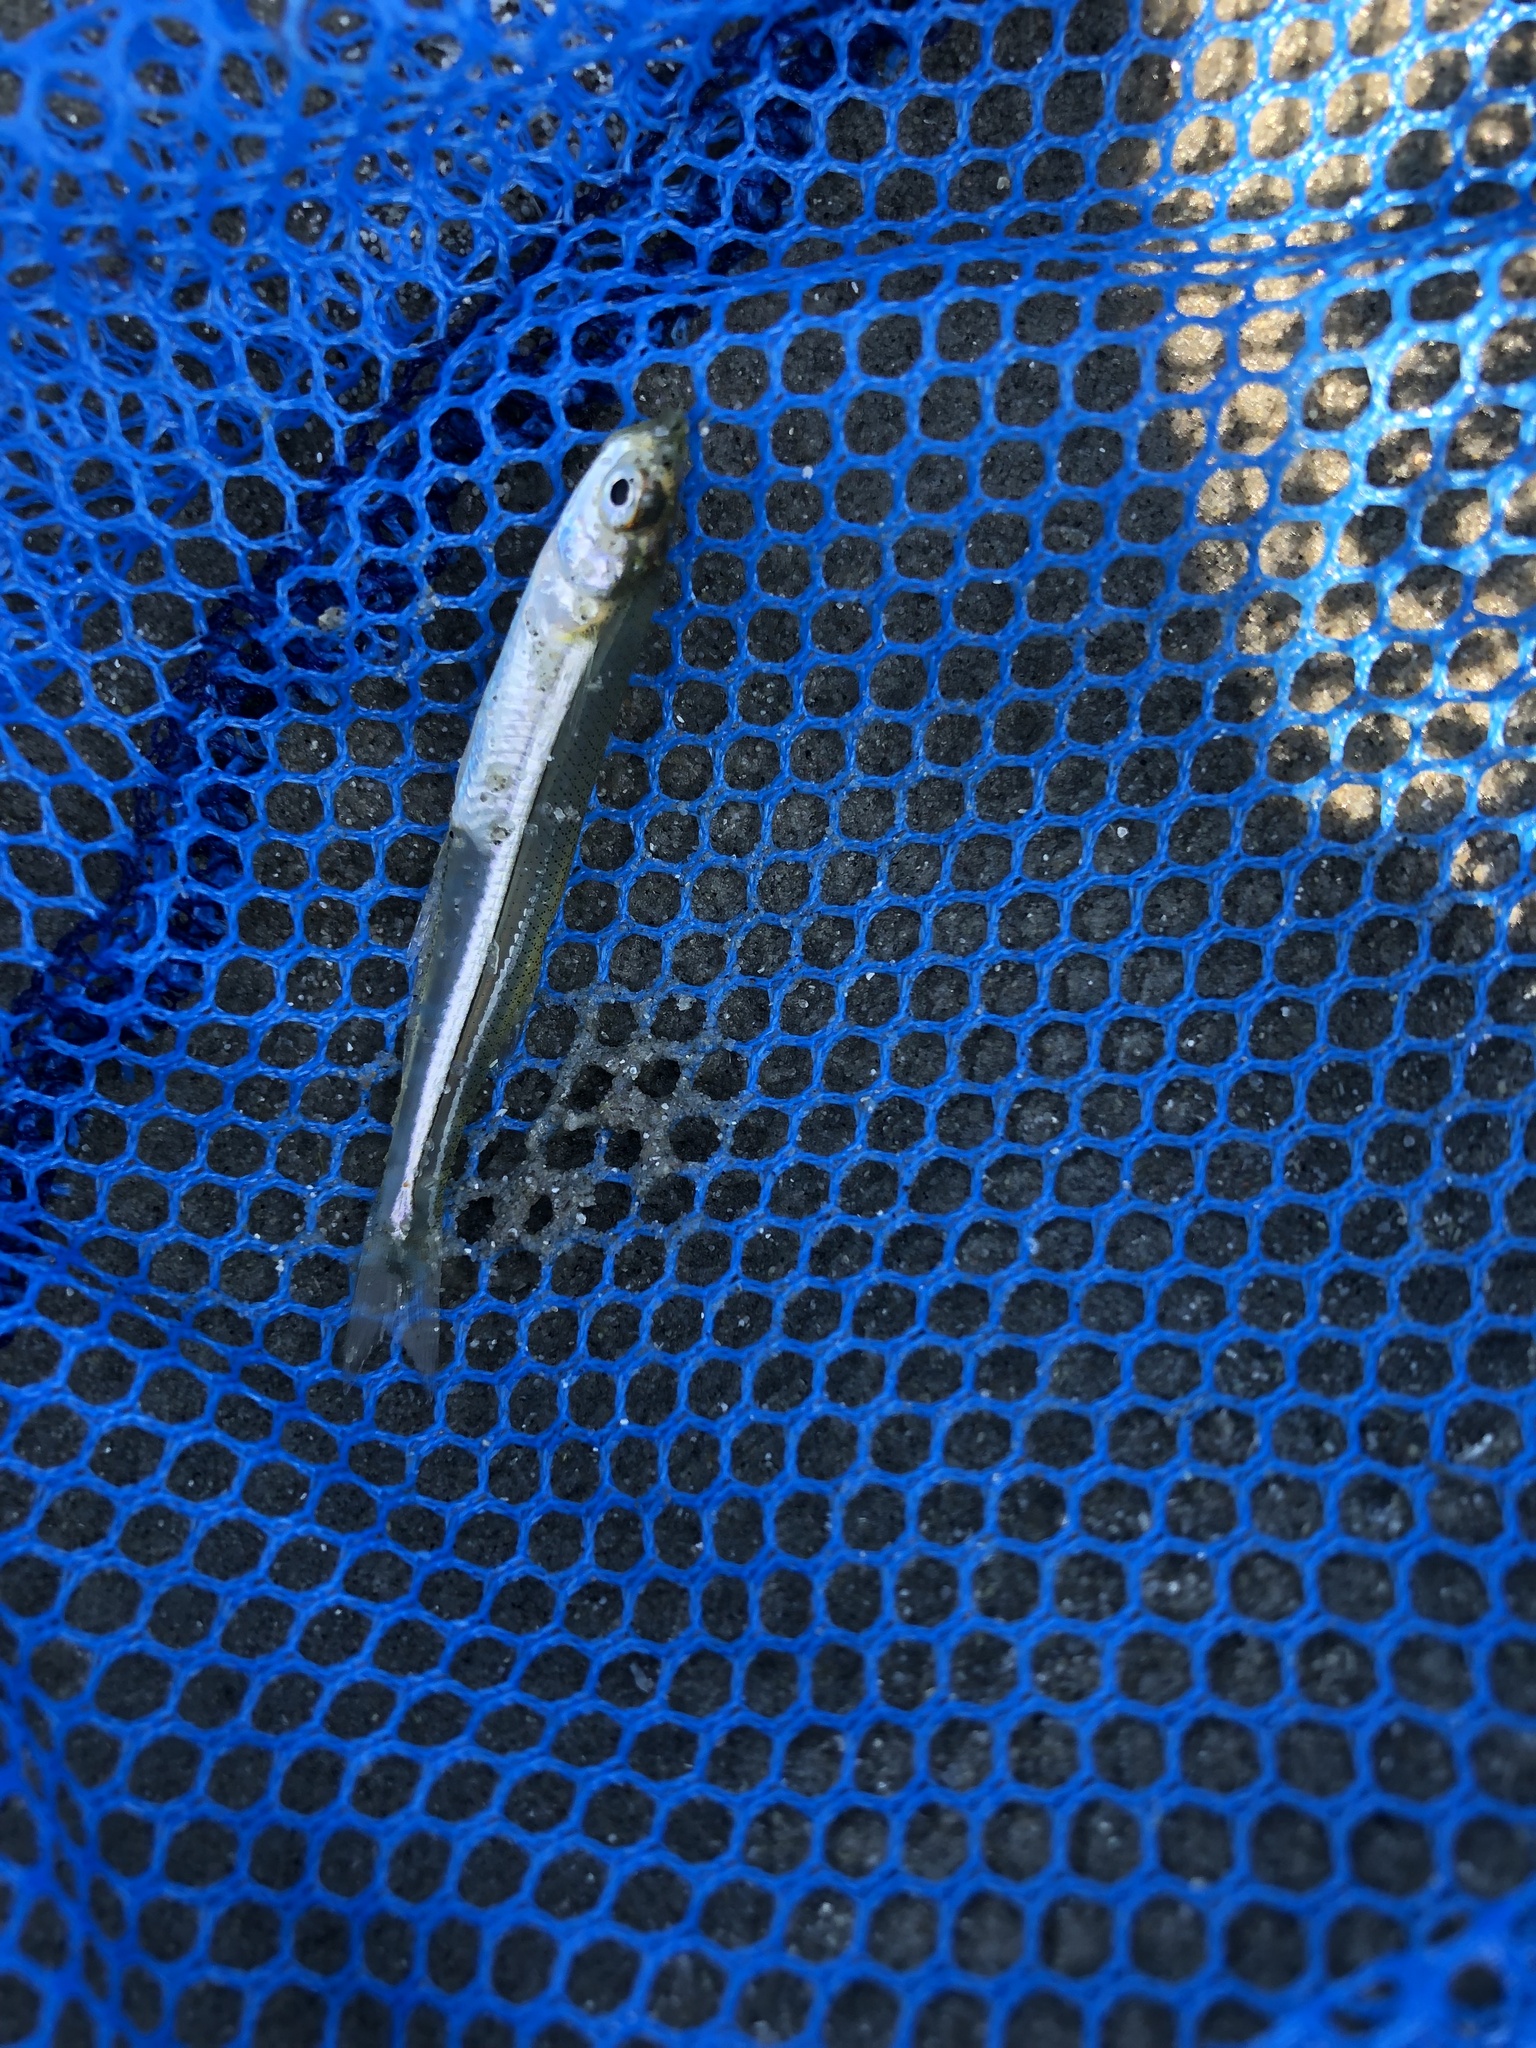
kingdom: Animalia
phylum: Chordata
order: Atheriniformes
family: Atherinopsidae
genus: Menidia
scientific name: Menidia menidia
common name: Atlantic silverside
